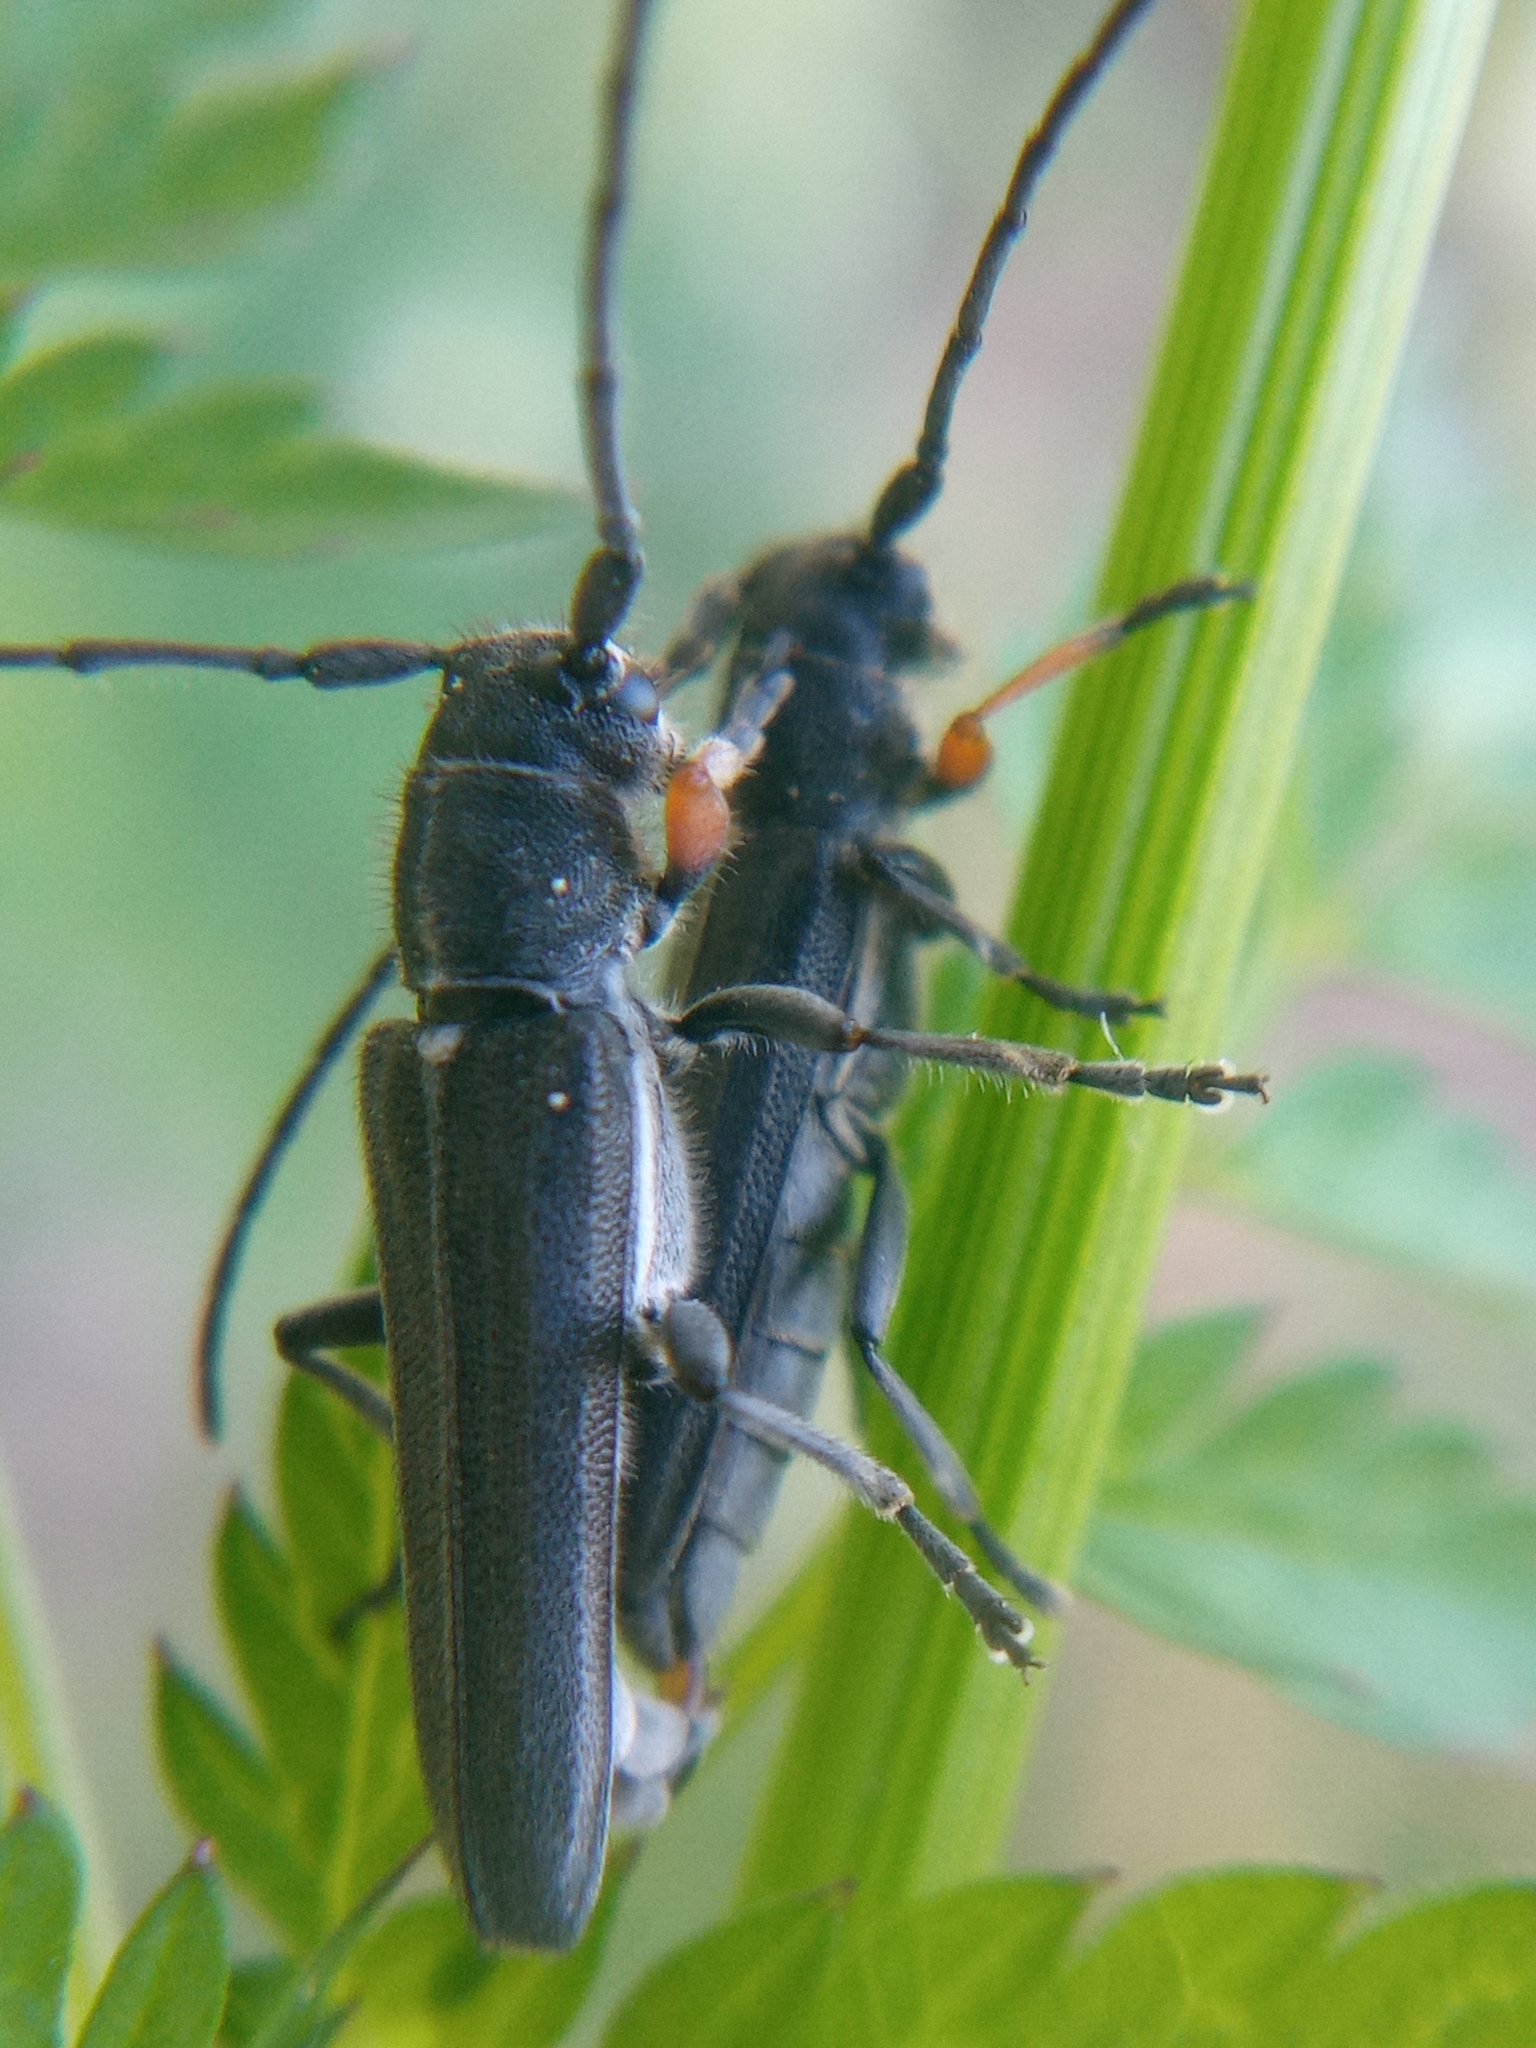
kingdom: Animalia
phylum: Arthropoda
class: Insecta
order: Coleoptera
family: Cerambycidae
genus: Phytoecia
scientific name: Phytoecia cylindrica
